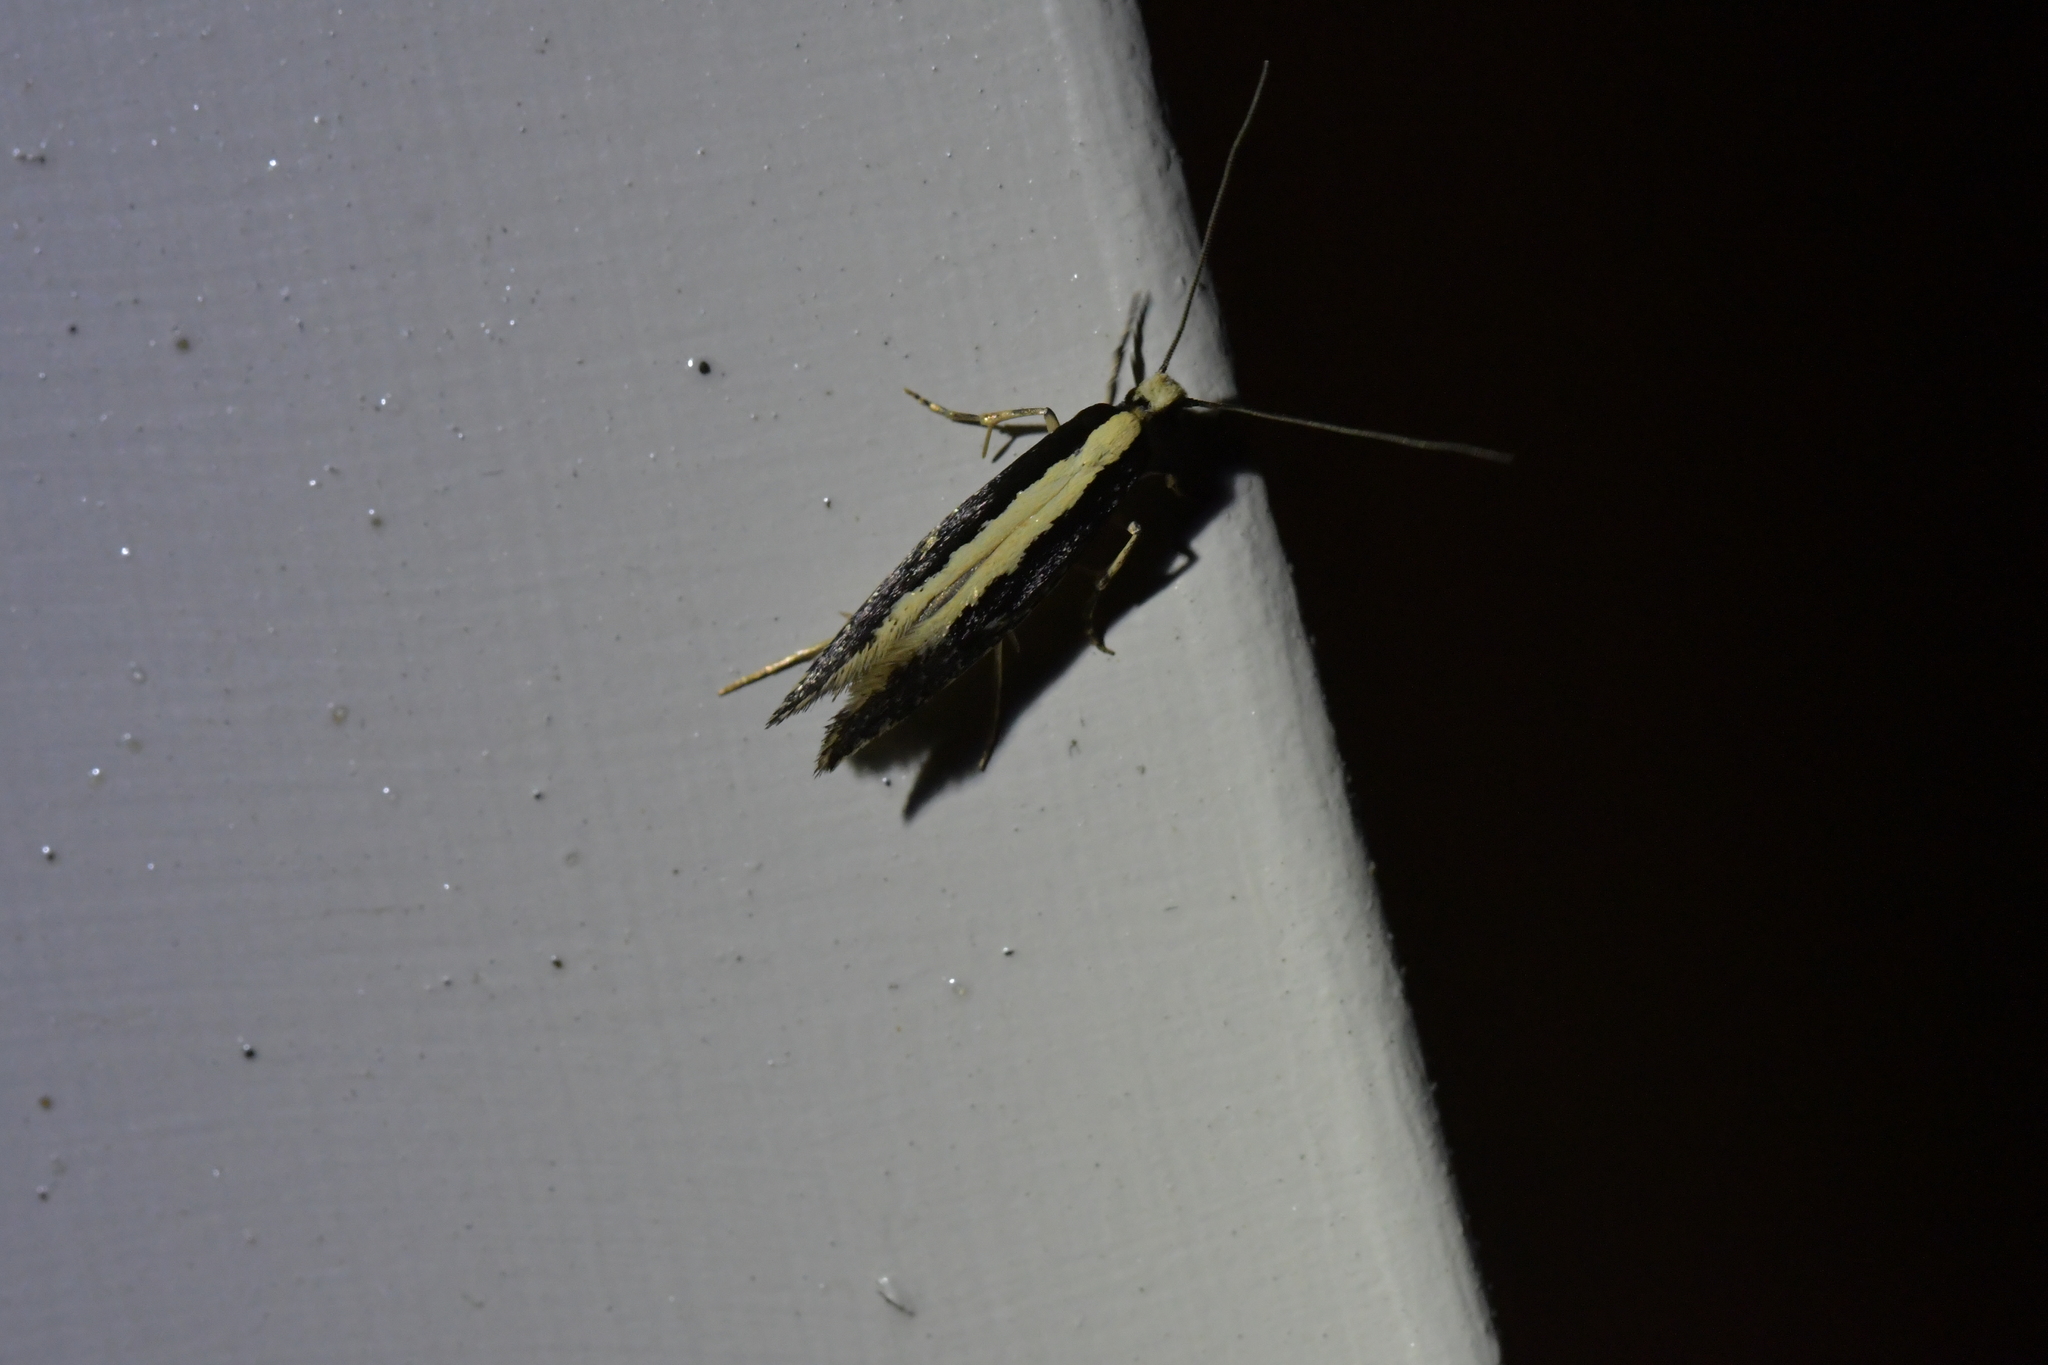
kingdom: Animalia
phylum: Arthropoda
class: Insecta
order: Lepidoptera
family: Tineidae
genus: Monopis
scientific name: Monopis ethelella
